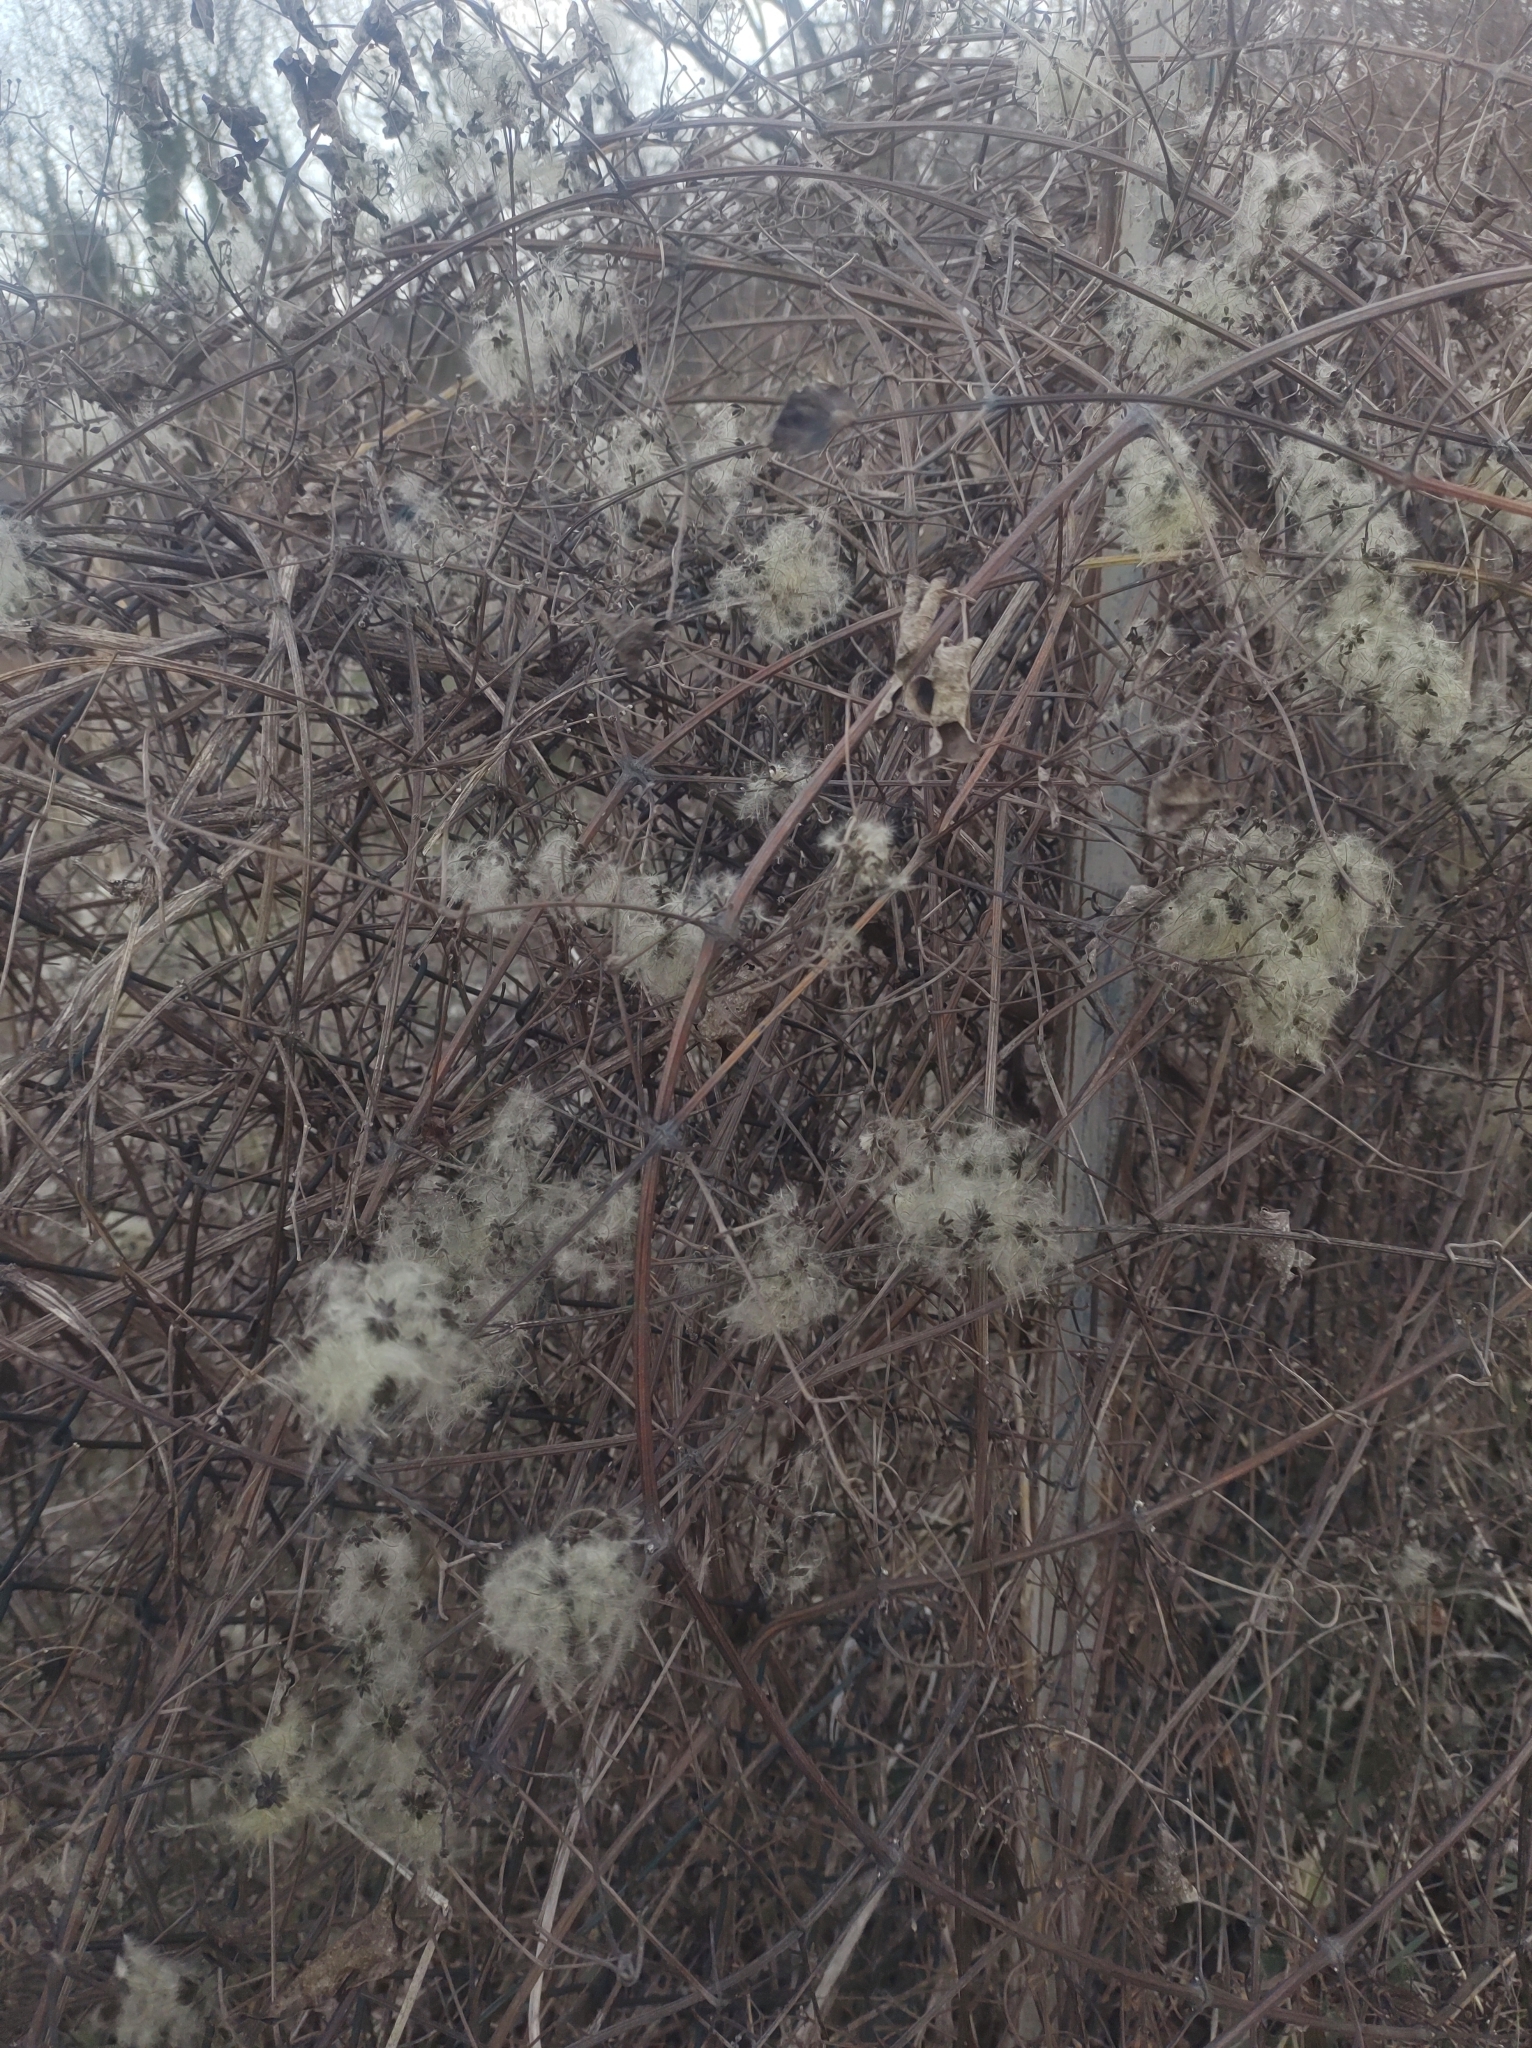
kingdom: Plantae
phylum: Tracheophyta
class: Magnoliopsida
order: Ranunculales
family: Ranunculaceae
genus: Clematis
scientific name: Clematis vitalba
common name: Evergreen clematis
